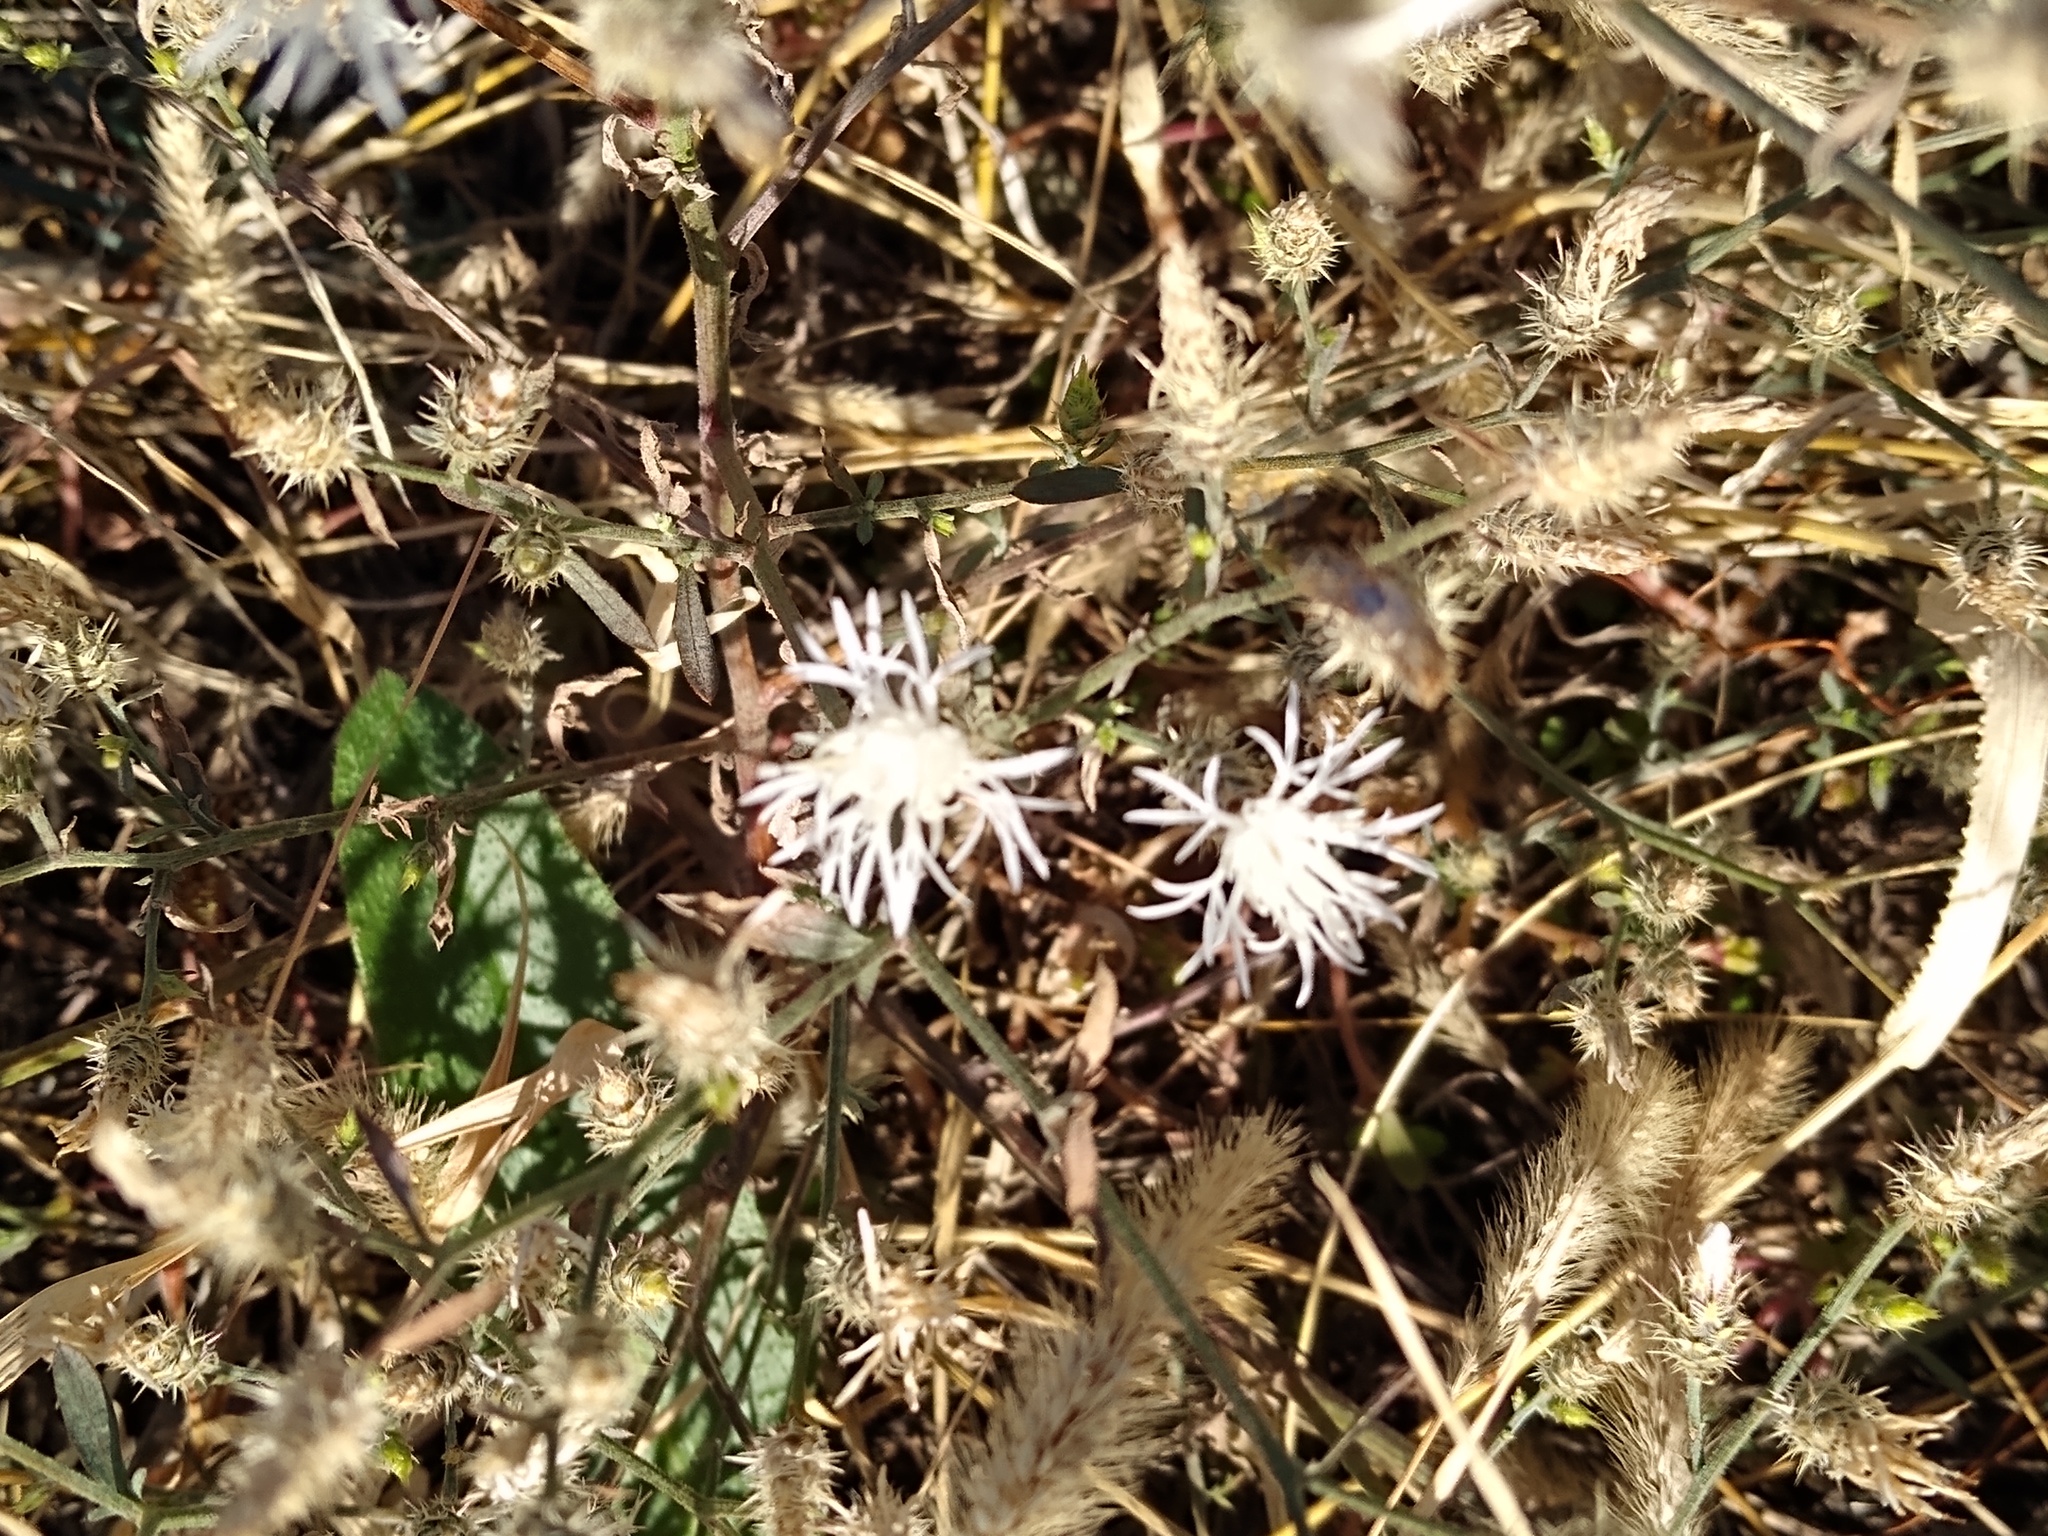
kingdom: Plantae
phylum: Tracheophyta
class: Magnoliopsida
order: Asterales
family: Asteraceae
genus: Centaurea
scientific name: Centaurea diffusa
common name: Diffuse knapweed
